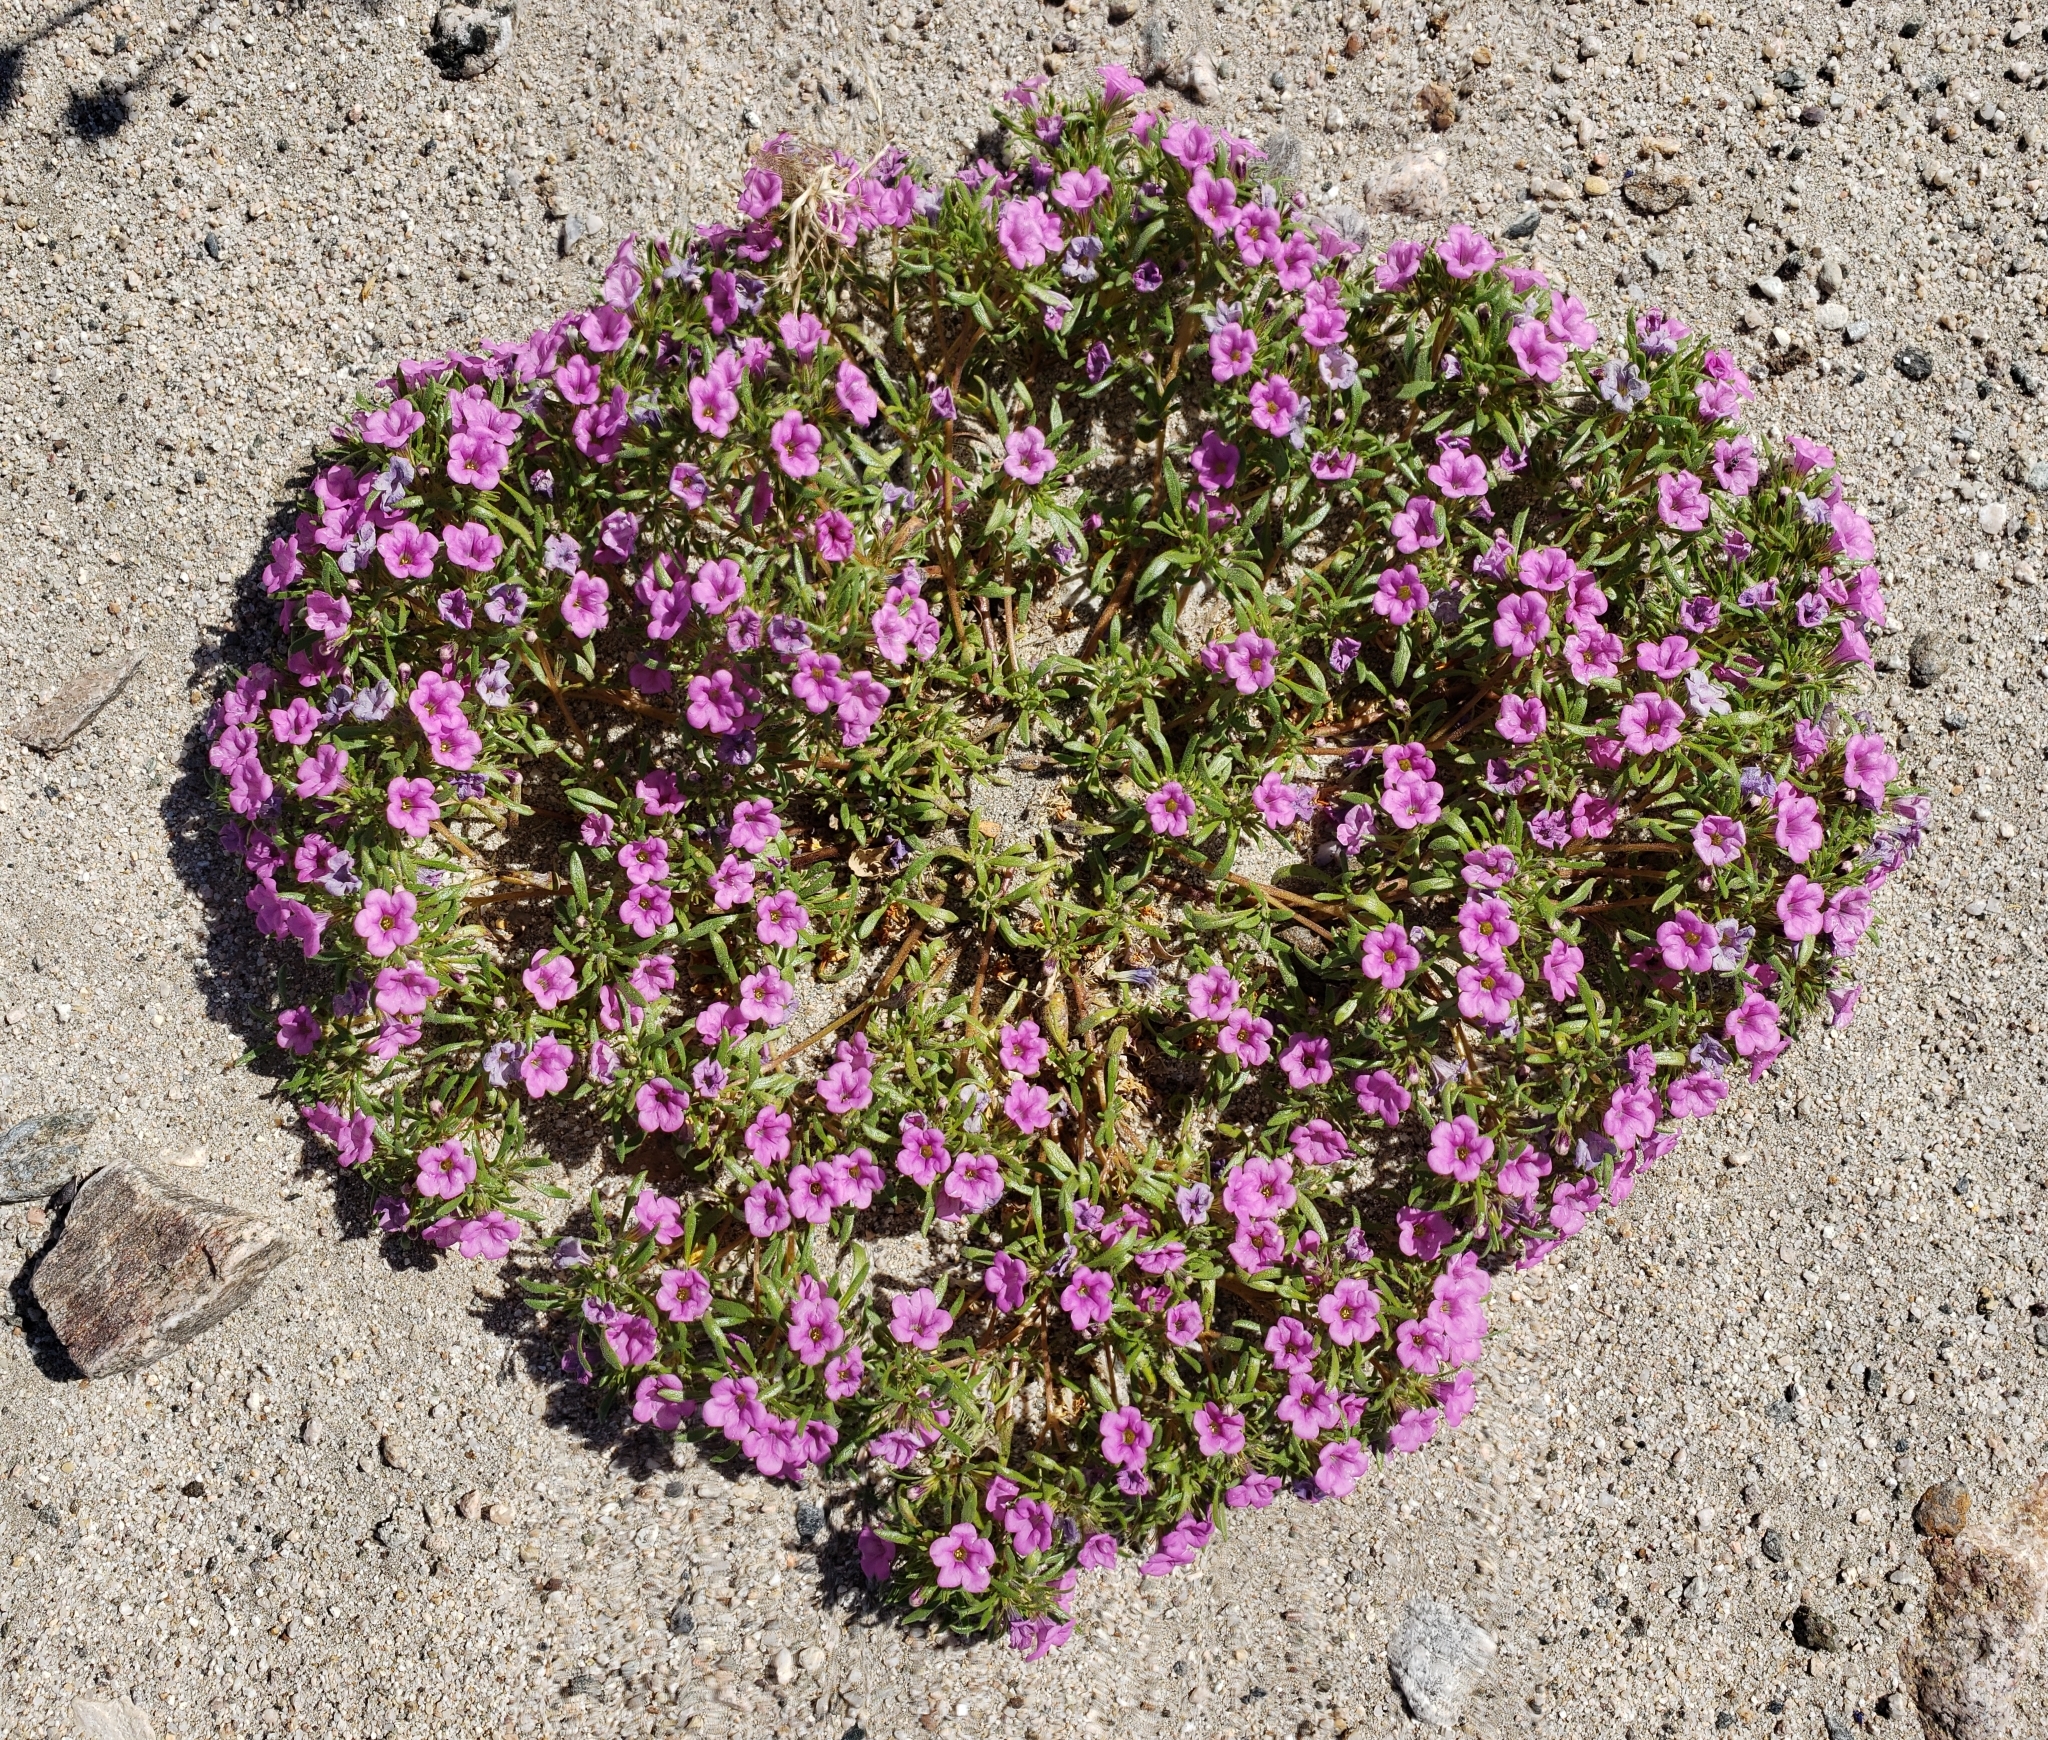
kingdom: Plantae
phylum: Tracheophyta
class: Magnoliopsida
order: Boraginales
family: Namaceae
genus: Nama
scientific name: Nama demissa
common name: Leafy nama
